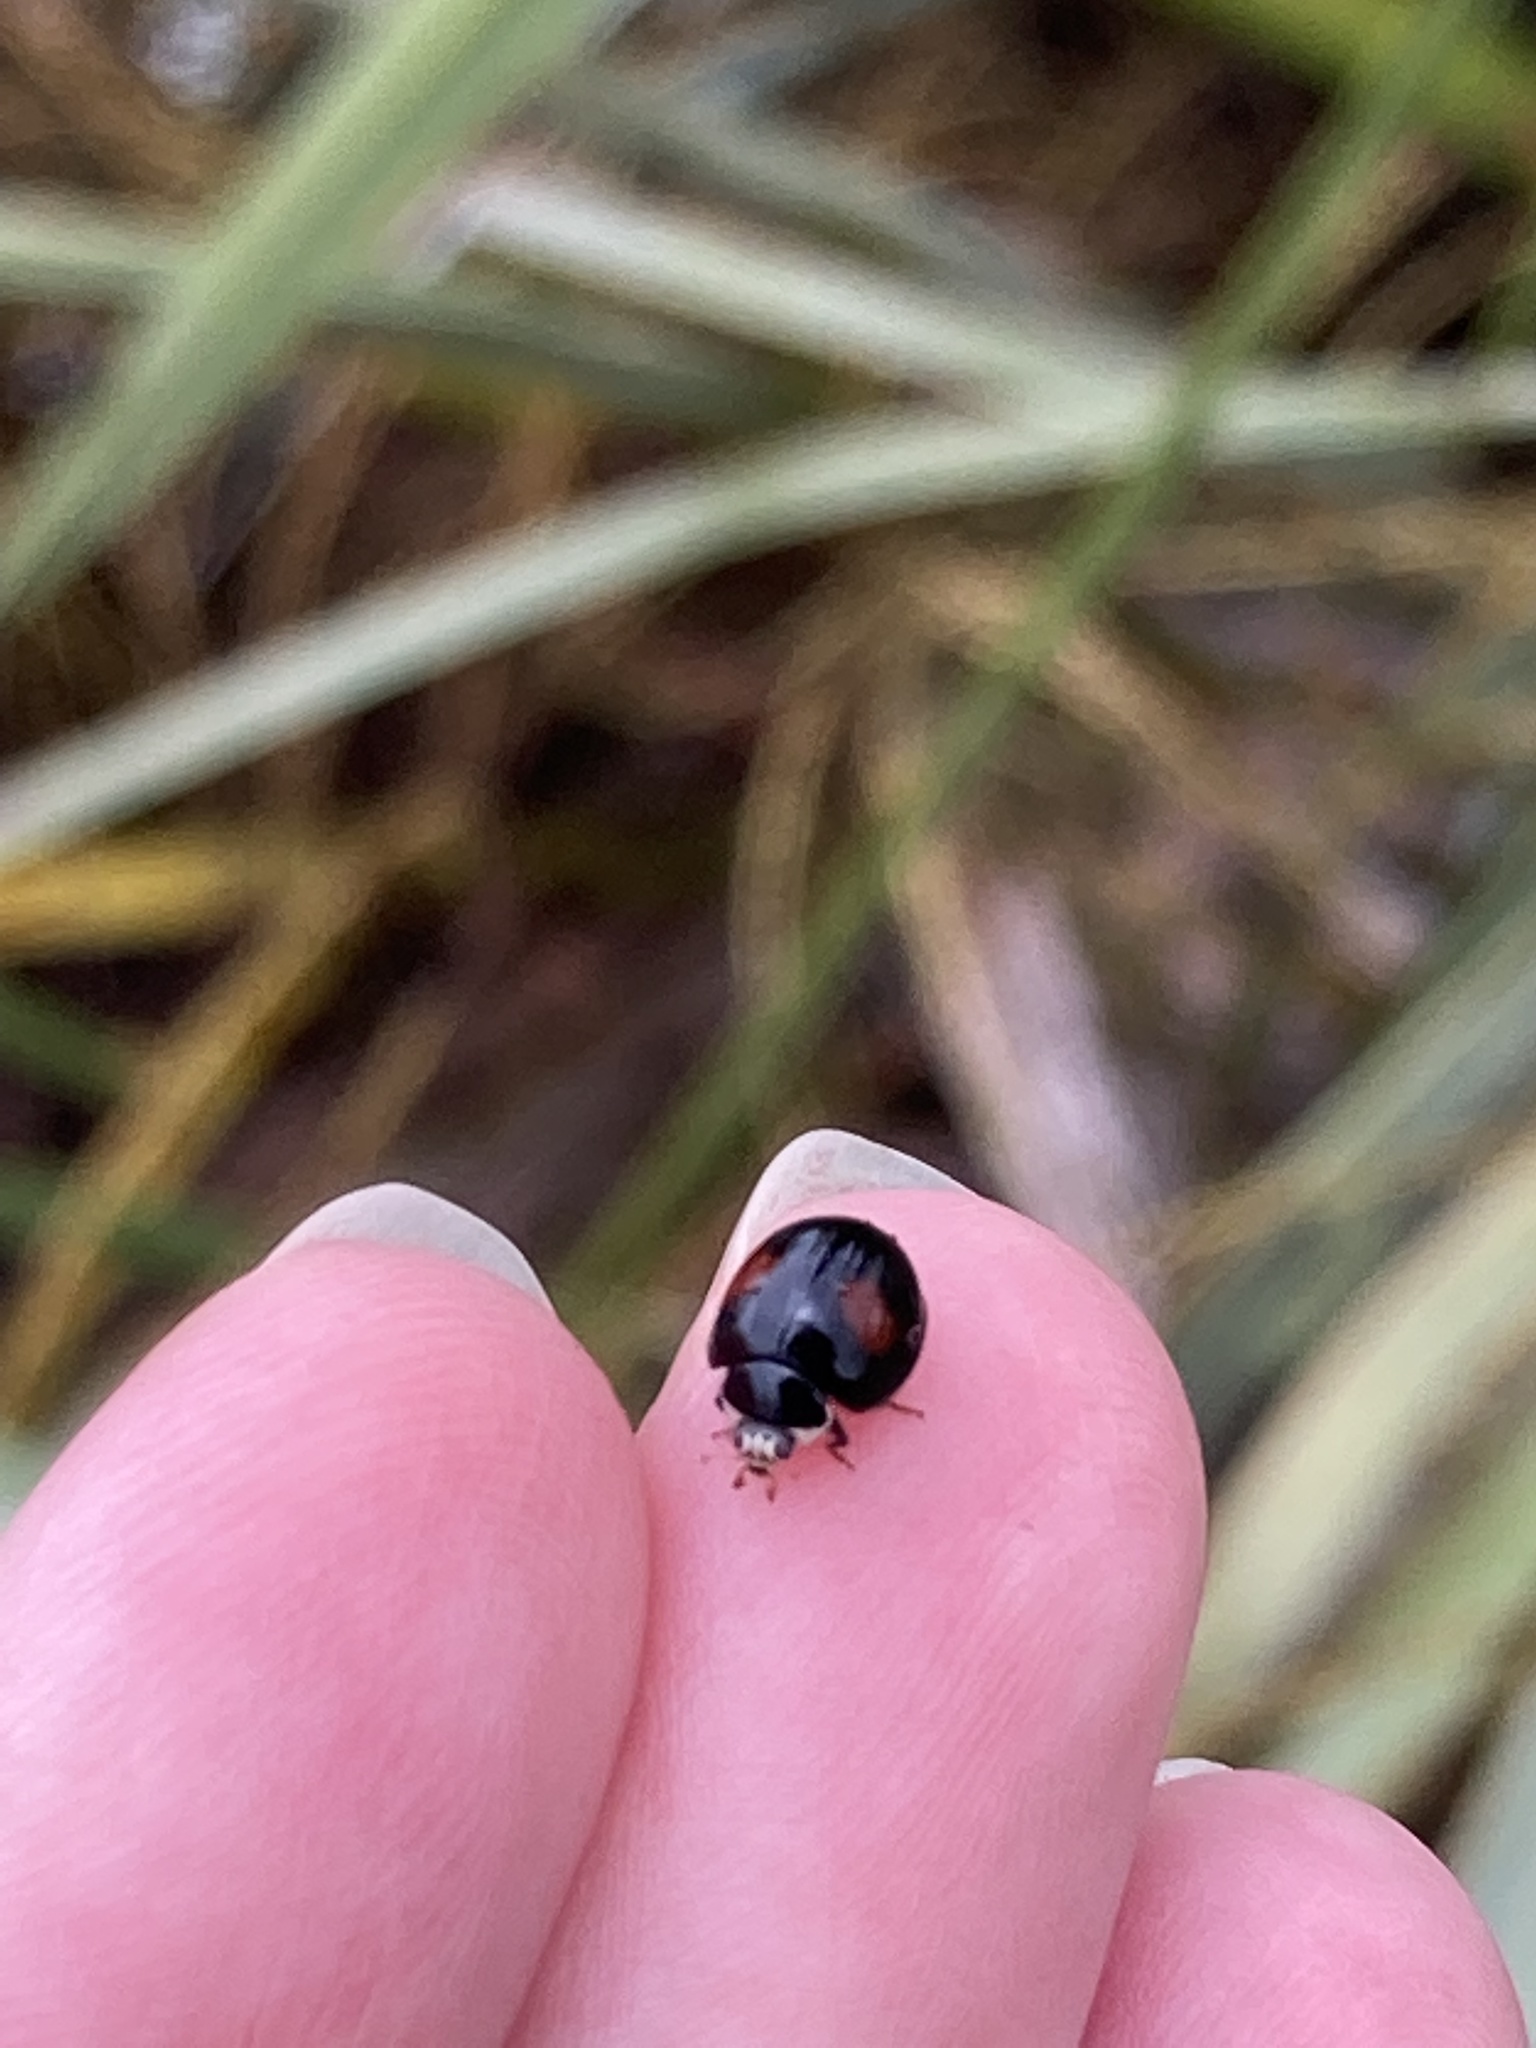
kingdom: Animalia
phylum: Arthropoda
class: Insecta
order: Coleoptera
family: Coccinellidae
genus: Olla
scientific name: Olla v-nigrum
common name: Ashy gray lady beetle
